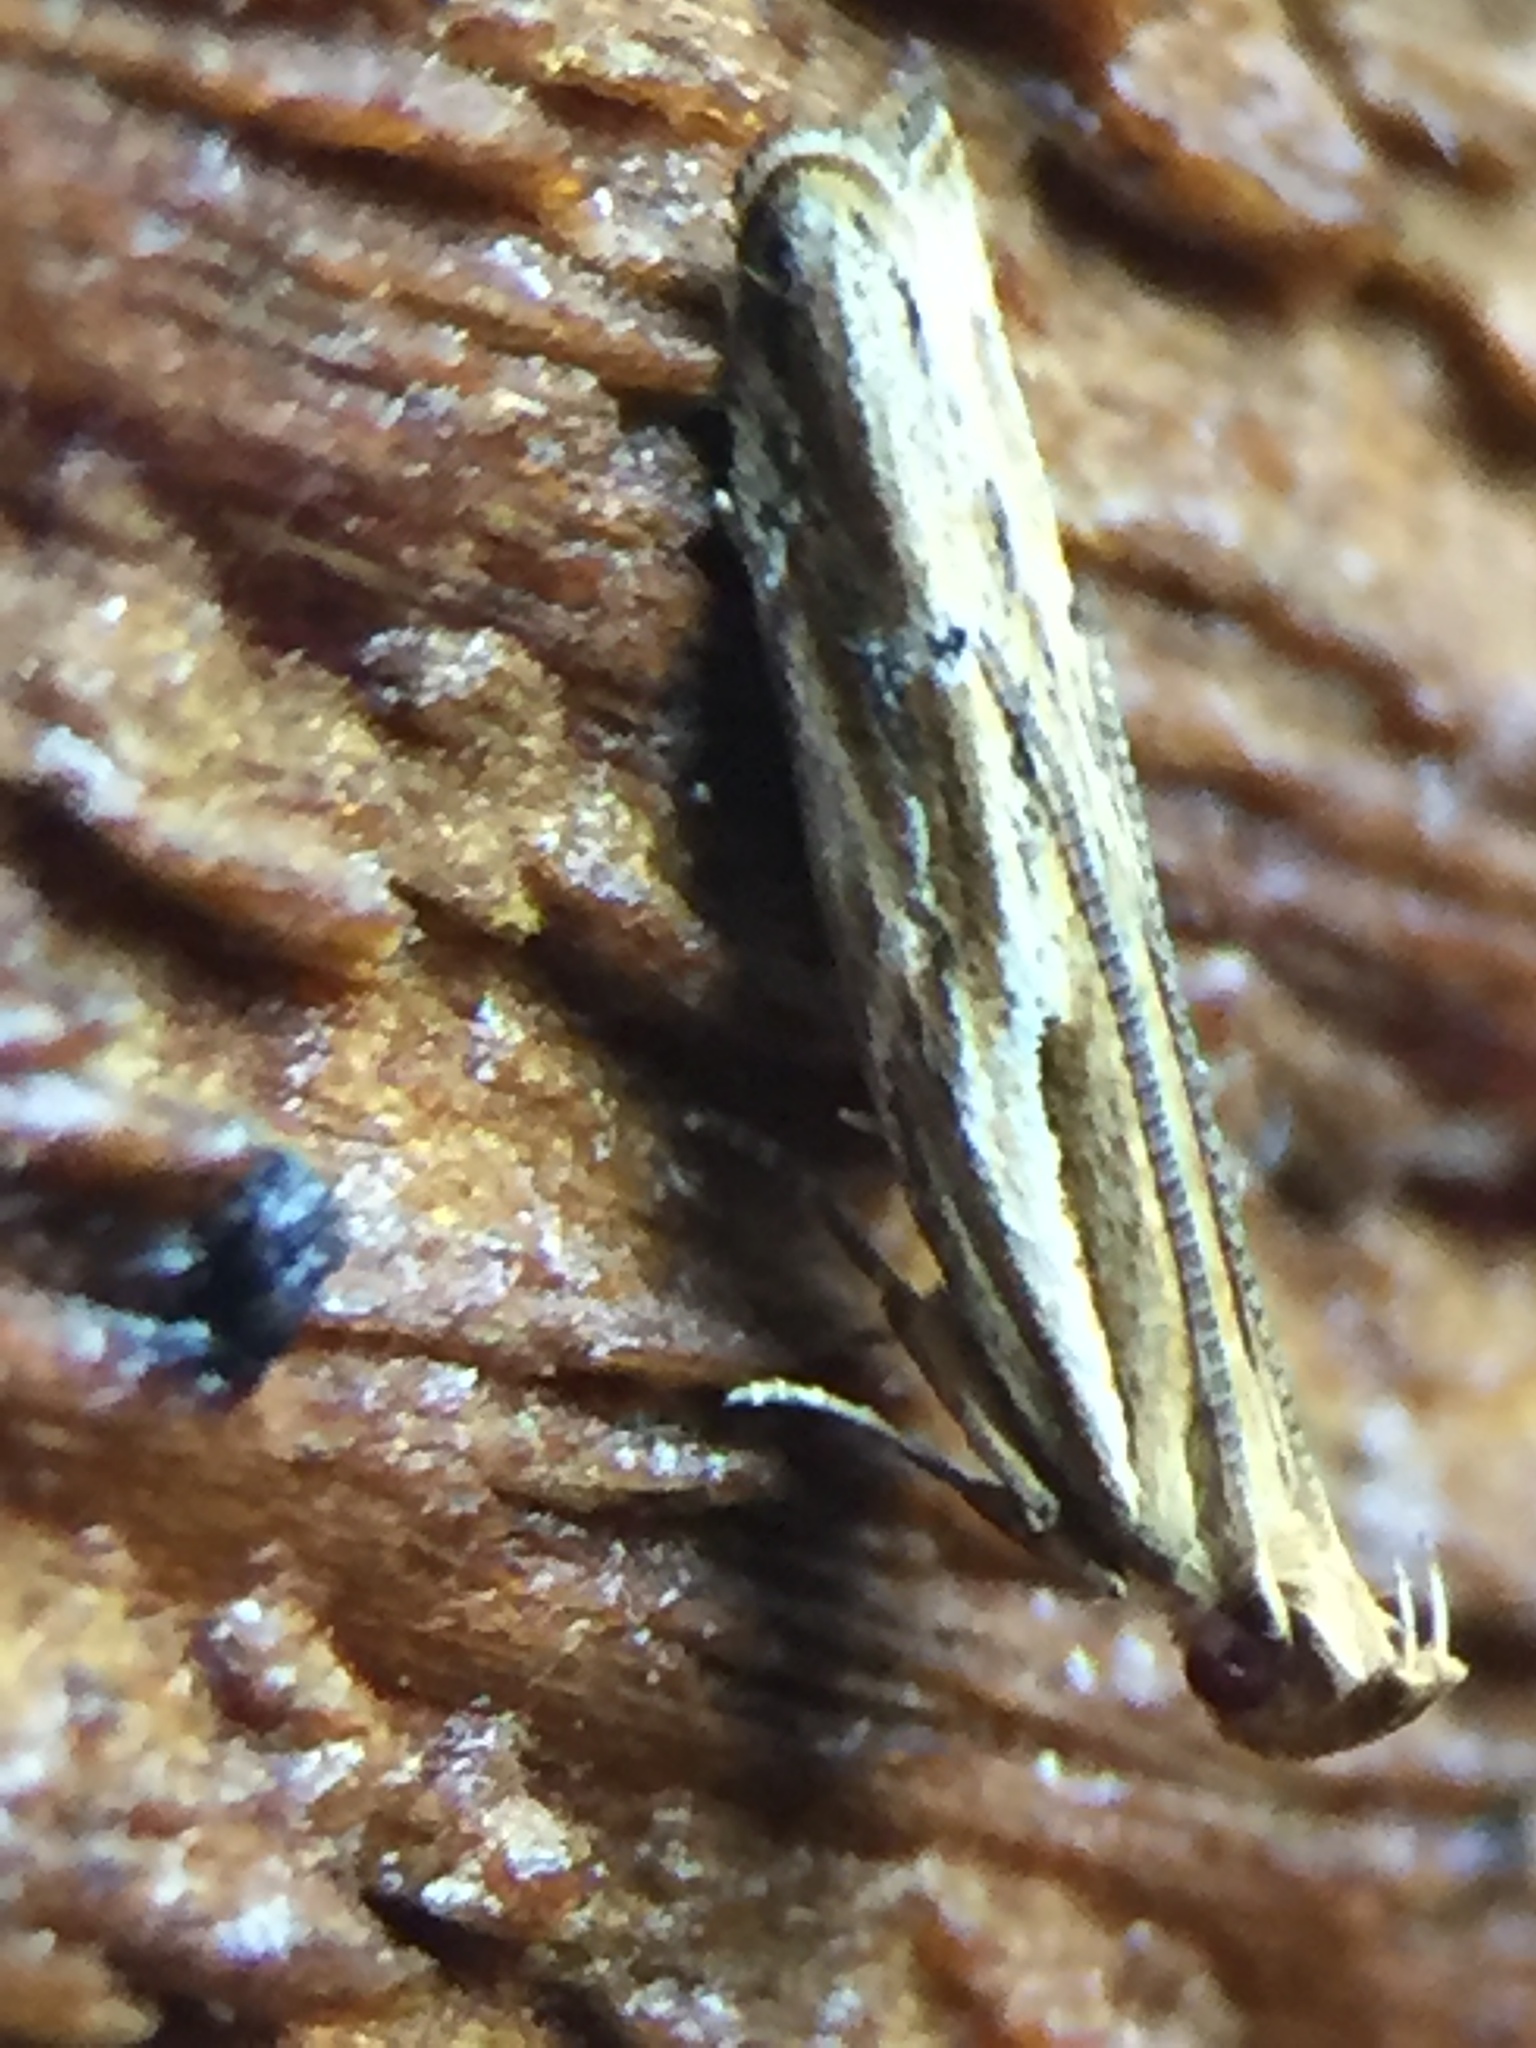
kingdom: Animalia
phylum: Arthropoda
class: Insecta
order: Lepidoptera
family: Depressariidae
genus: Eutorna
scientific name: Eutorna symmorpha
